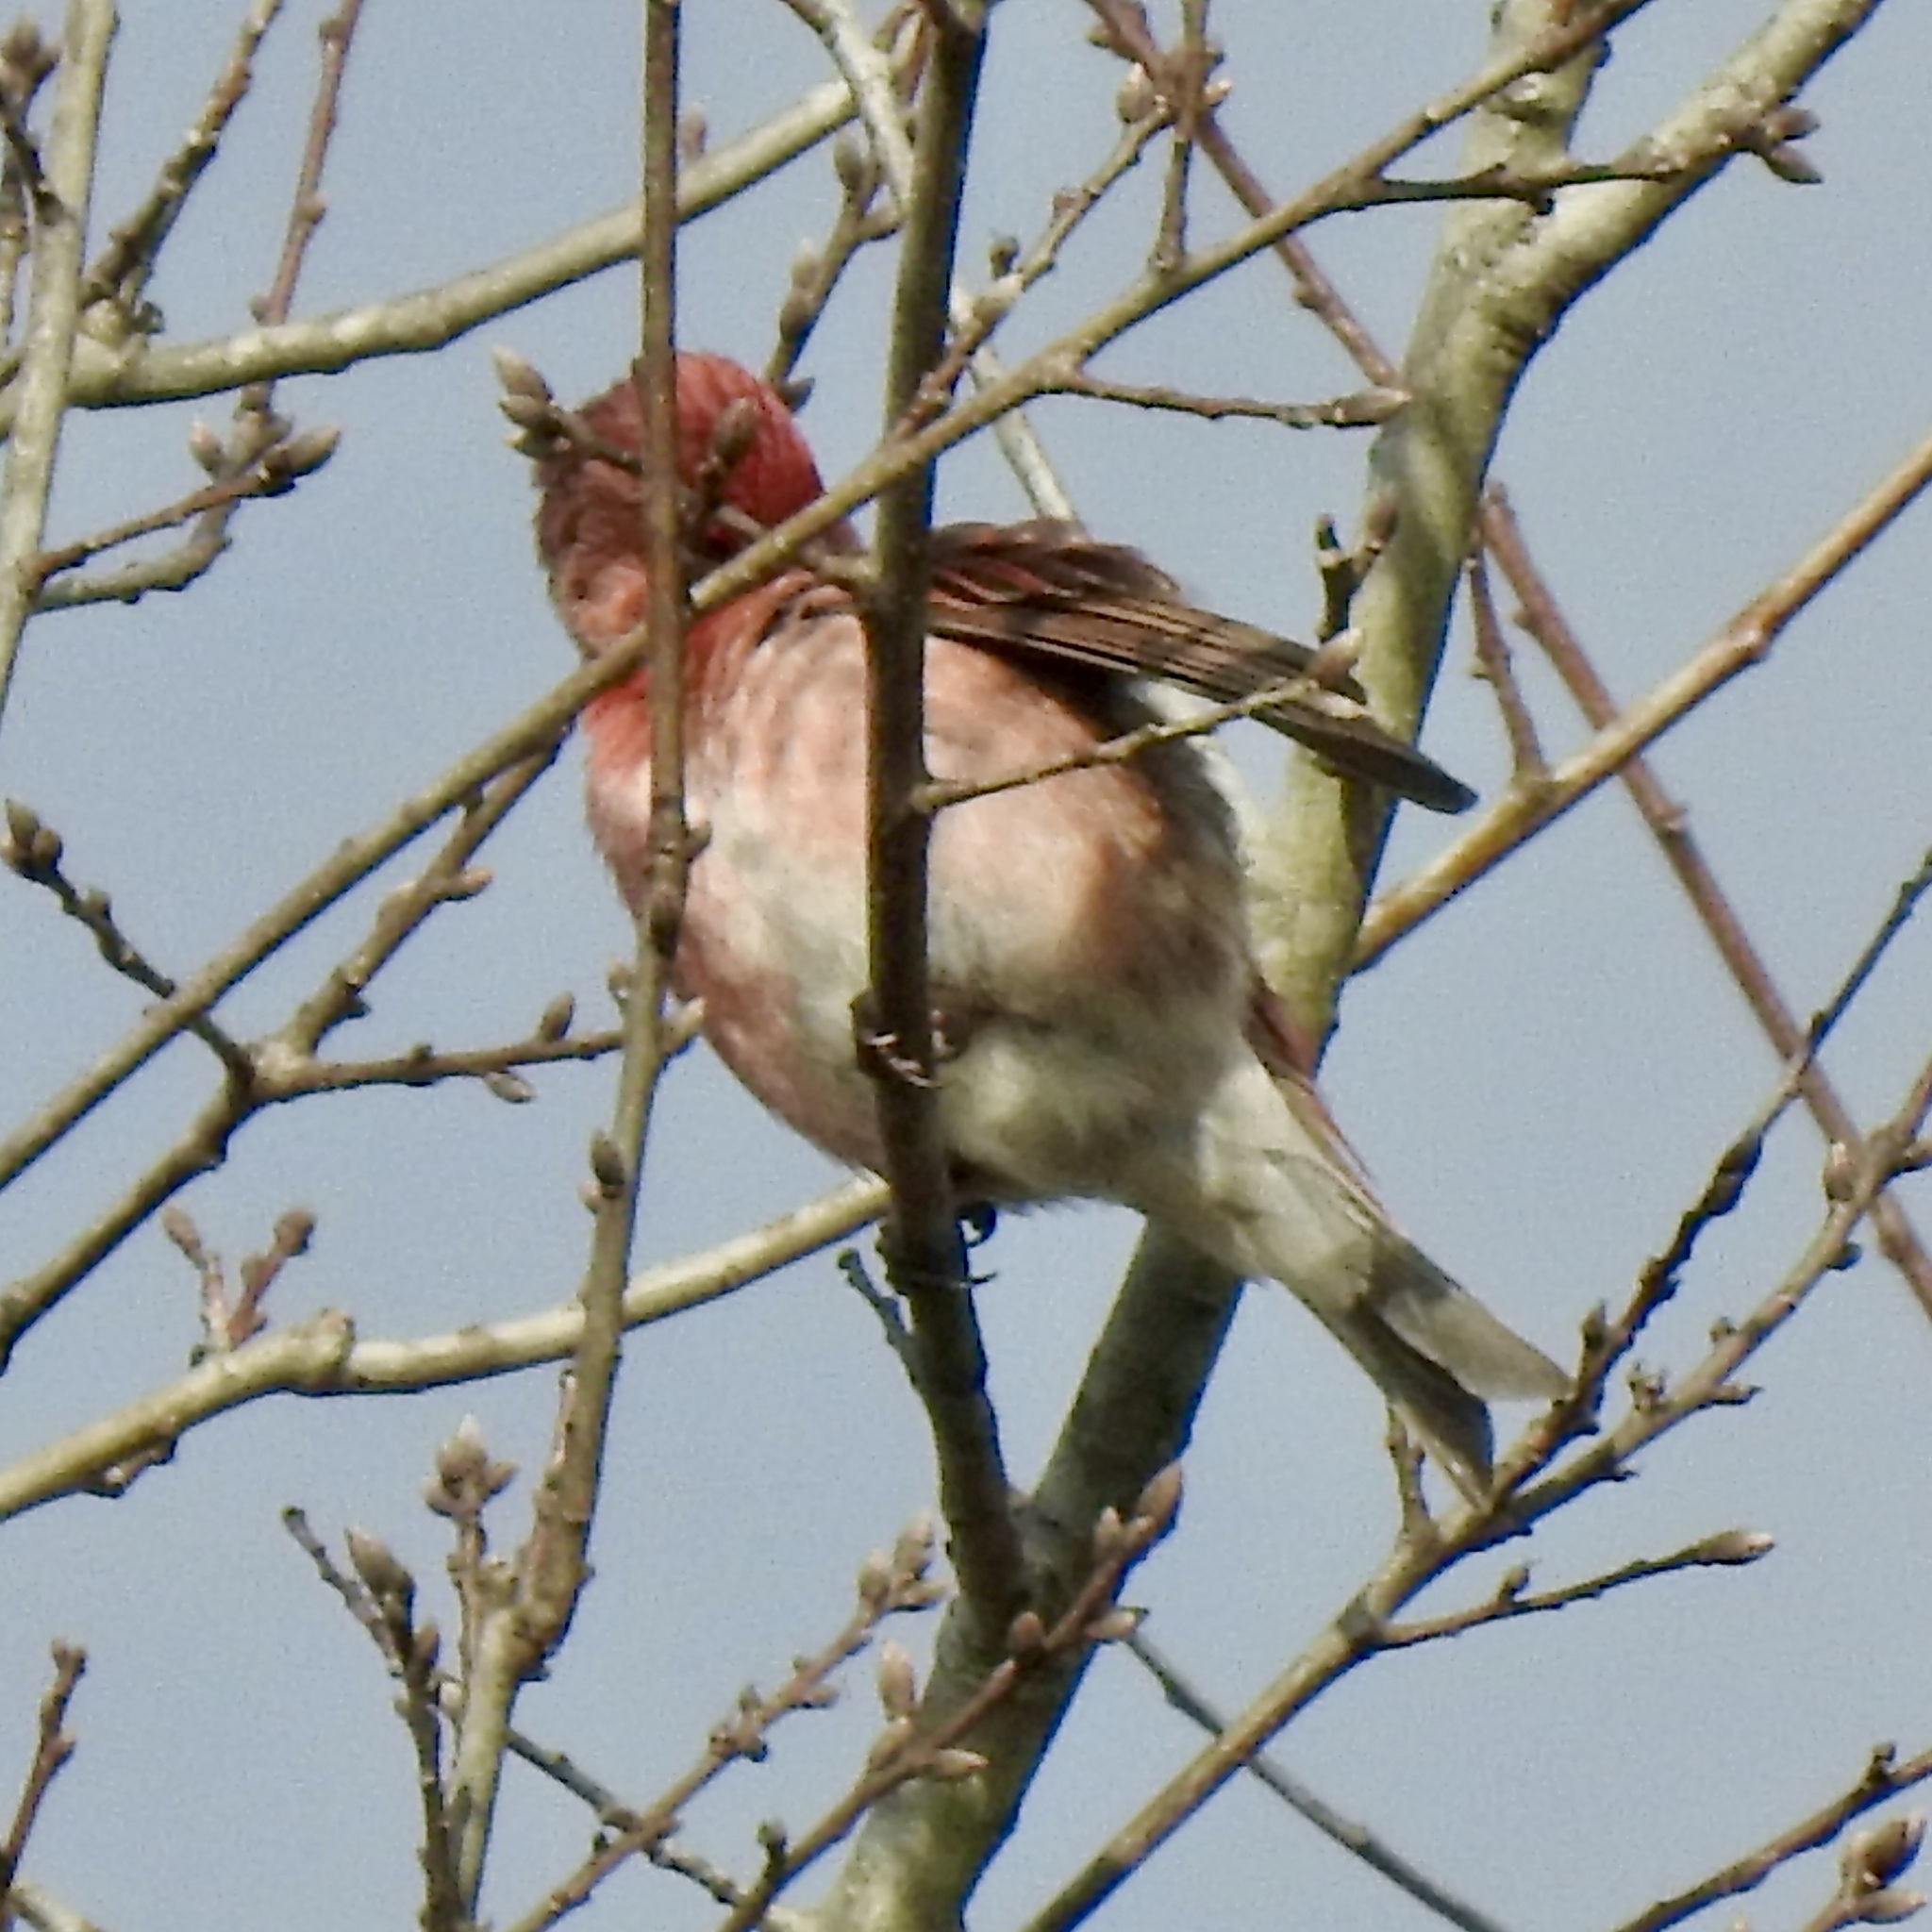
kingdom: Animalia
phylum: Chordata
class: Aves
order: Passeriformes
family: Fringillidae
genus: Haemorhous
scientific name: Haemorhous purpureus
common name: Purple finch
